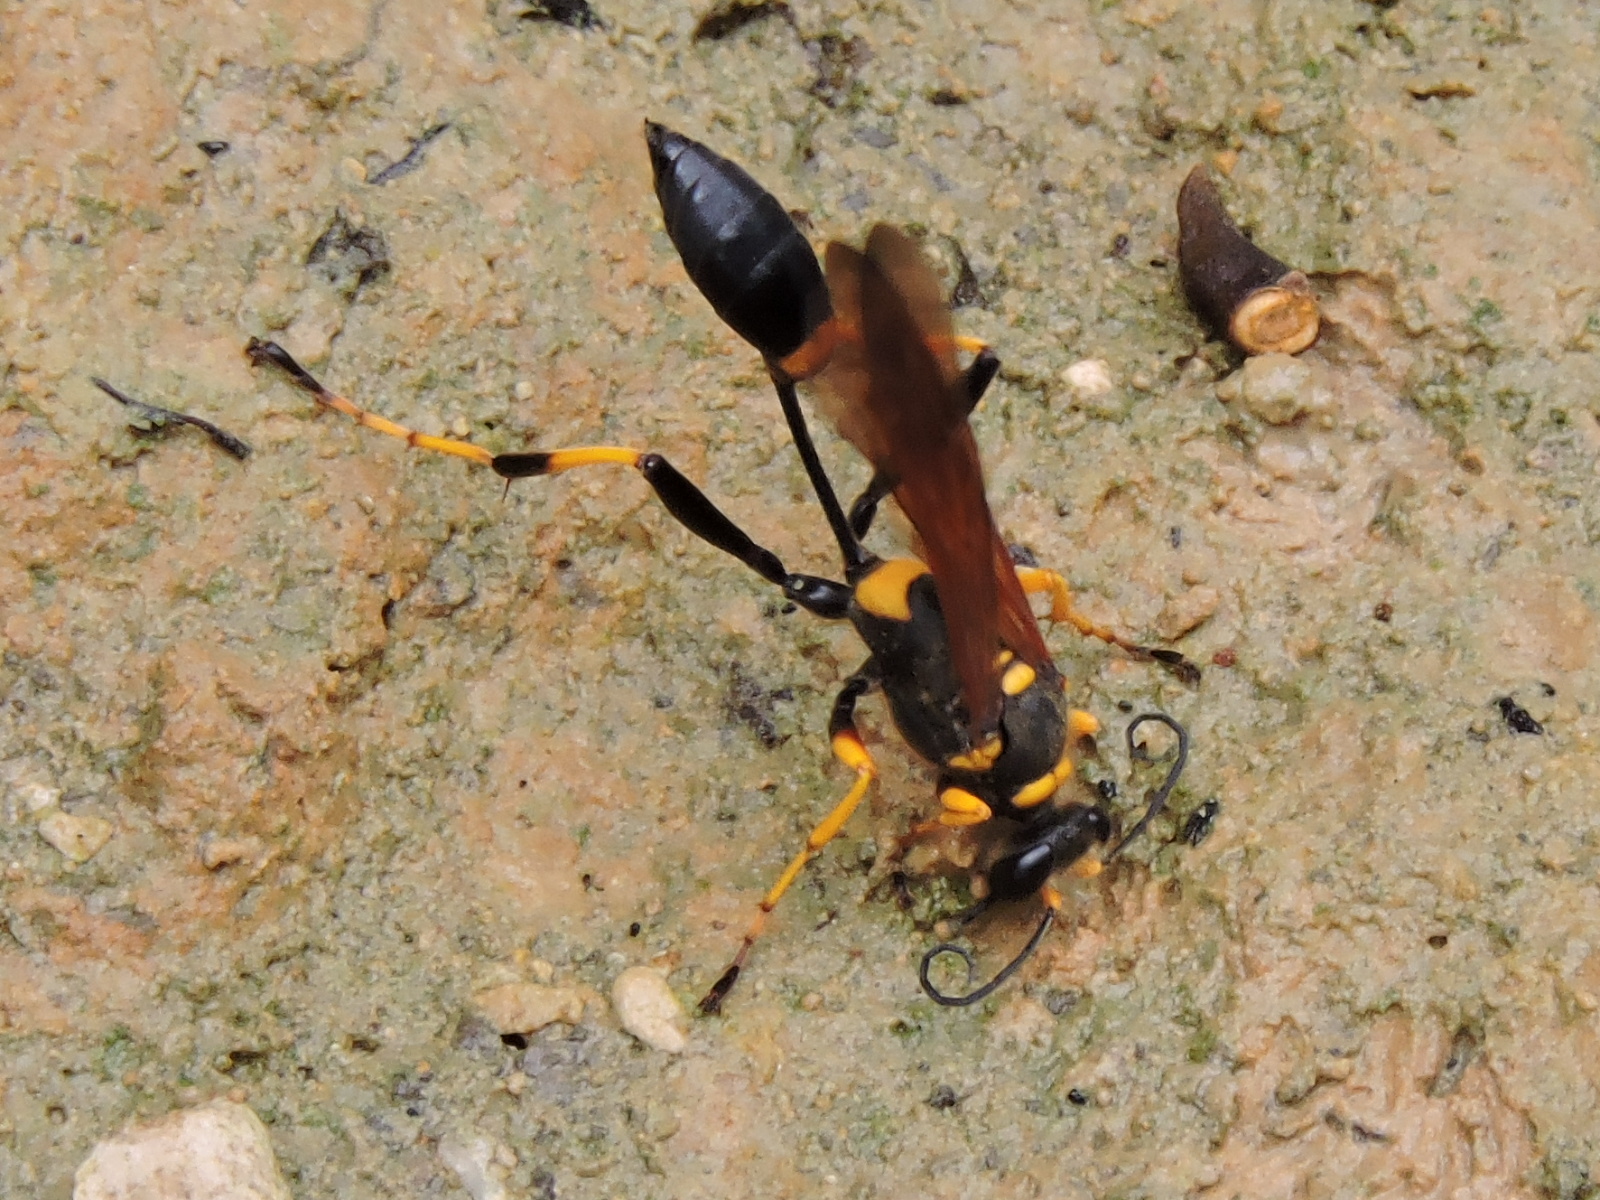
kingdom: Animalia
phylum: Arthropoda
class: Insecta
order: Hymenoptera
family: Sphecidae
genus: Sceliphron
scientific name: Sceliphron caementarium
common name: Mud dauber
